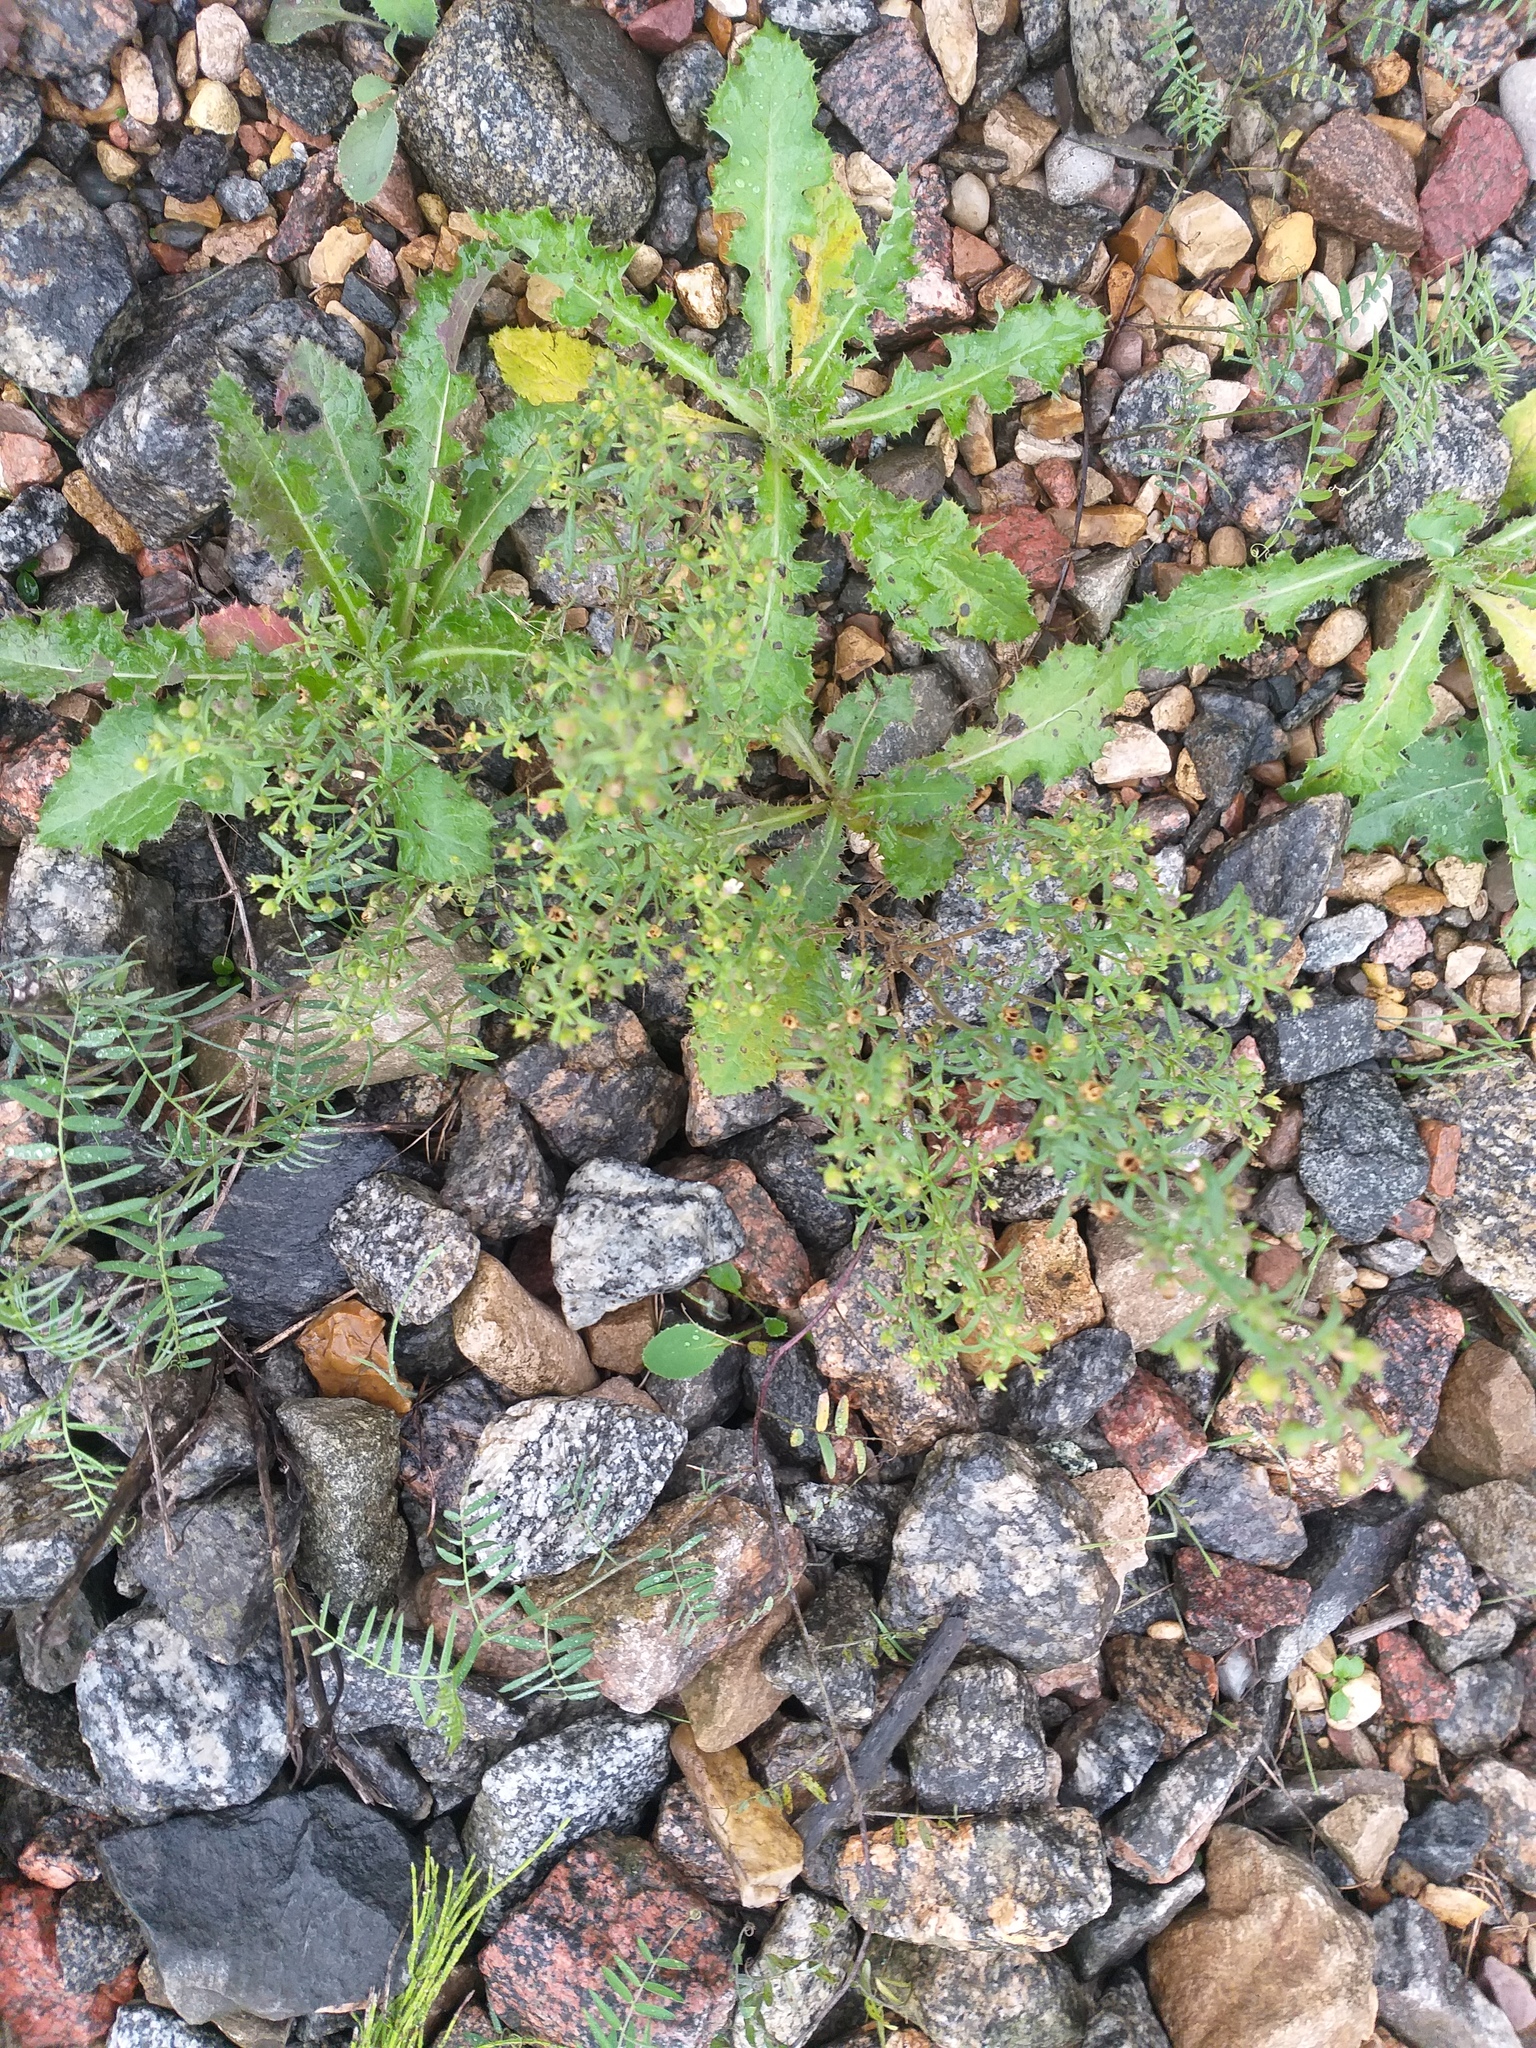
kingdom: Plantae
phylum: Tracheophyta
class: Magnoliopsida
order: Lamiales
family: Plantaginaceae
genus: Chaenorhinum
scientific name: Chaenorhinum minus
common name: Dwarf snapdragon
